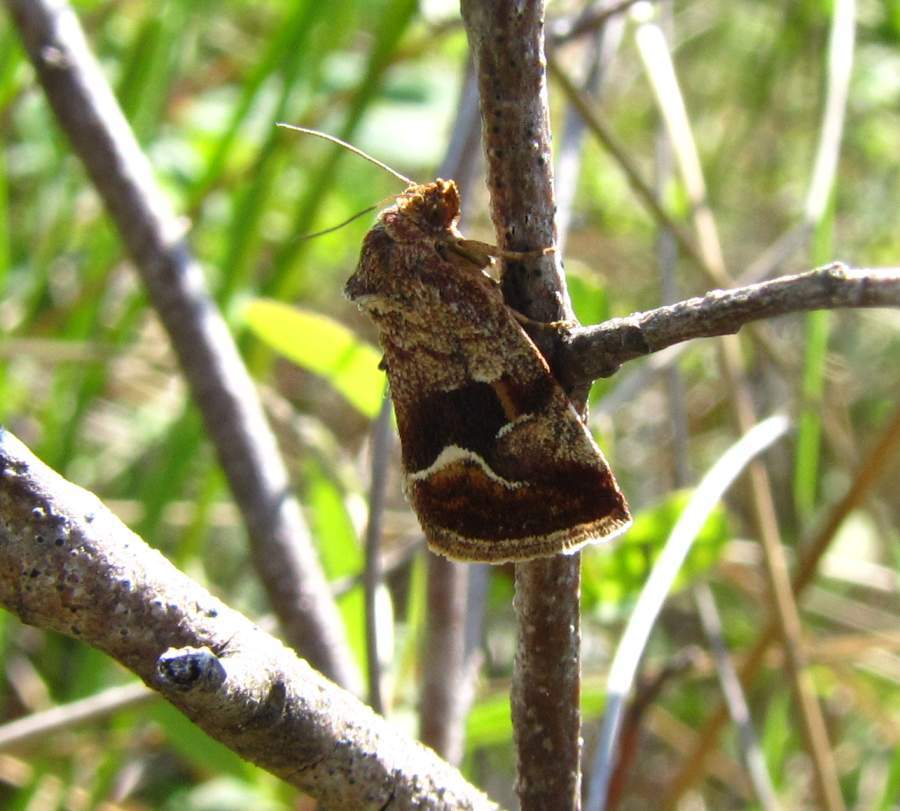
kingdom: Animalia
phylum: Arthropoda
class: Insecta
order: Lepidoptera
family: Noctuidae
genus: Deltote
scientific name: Deltote bellicula
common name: Bog glyph
